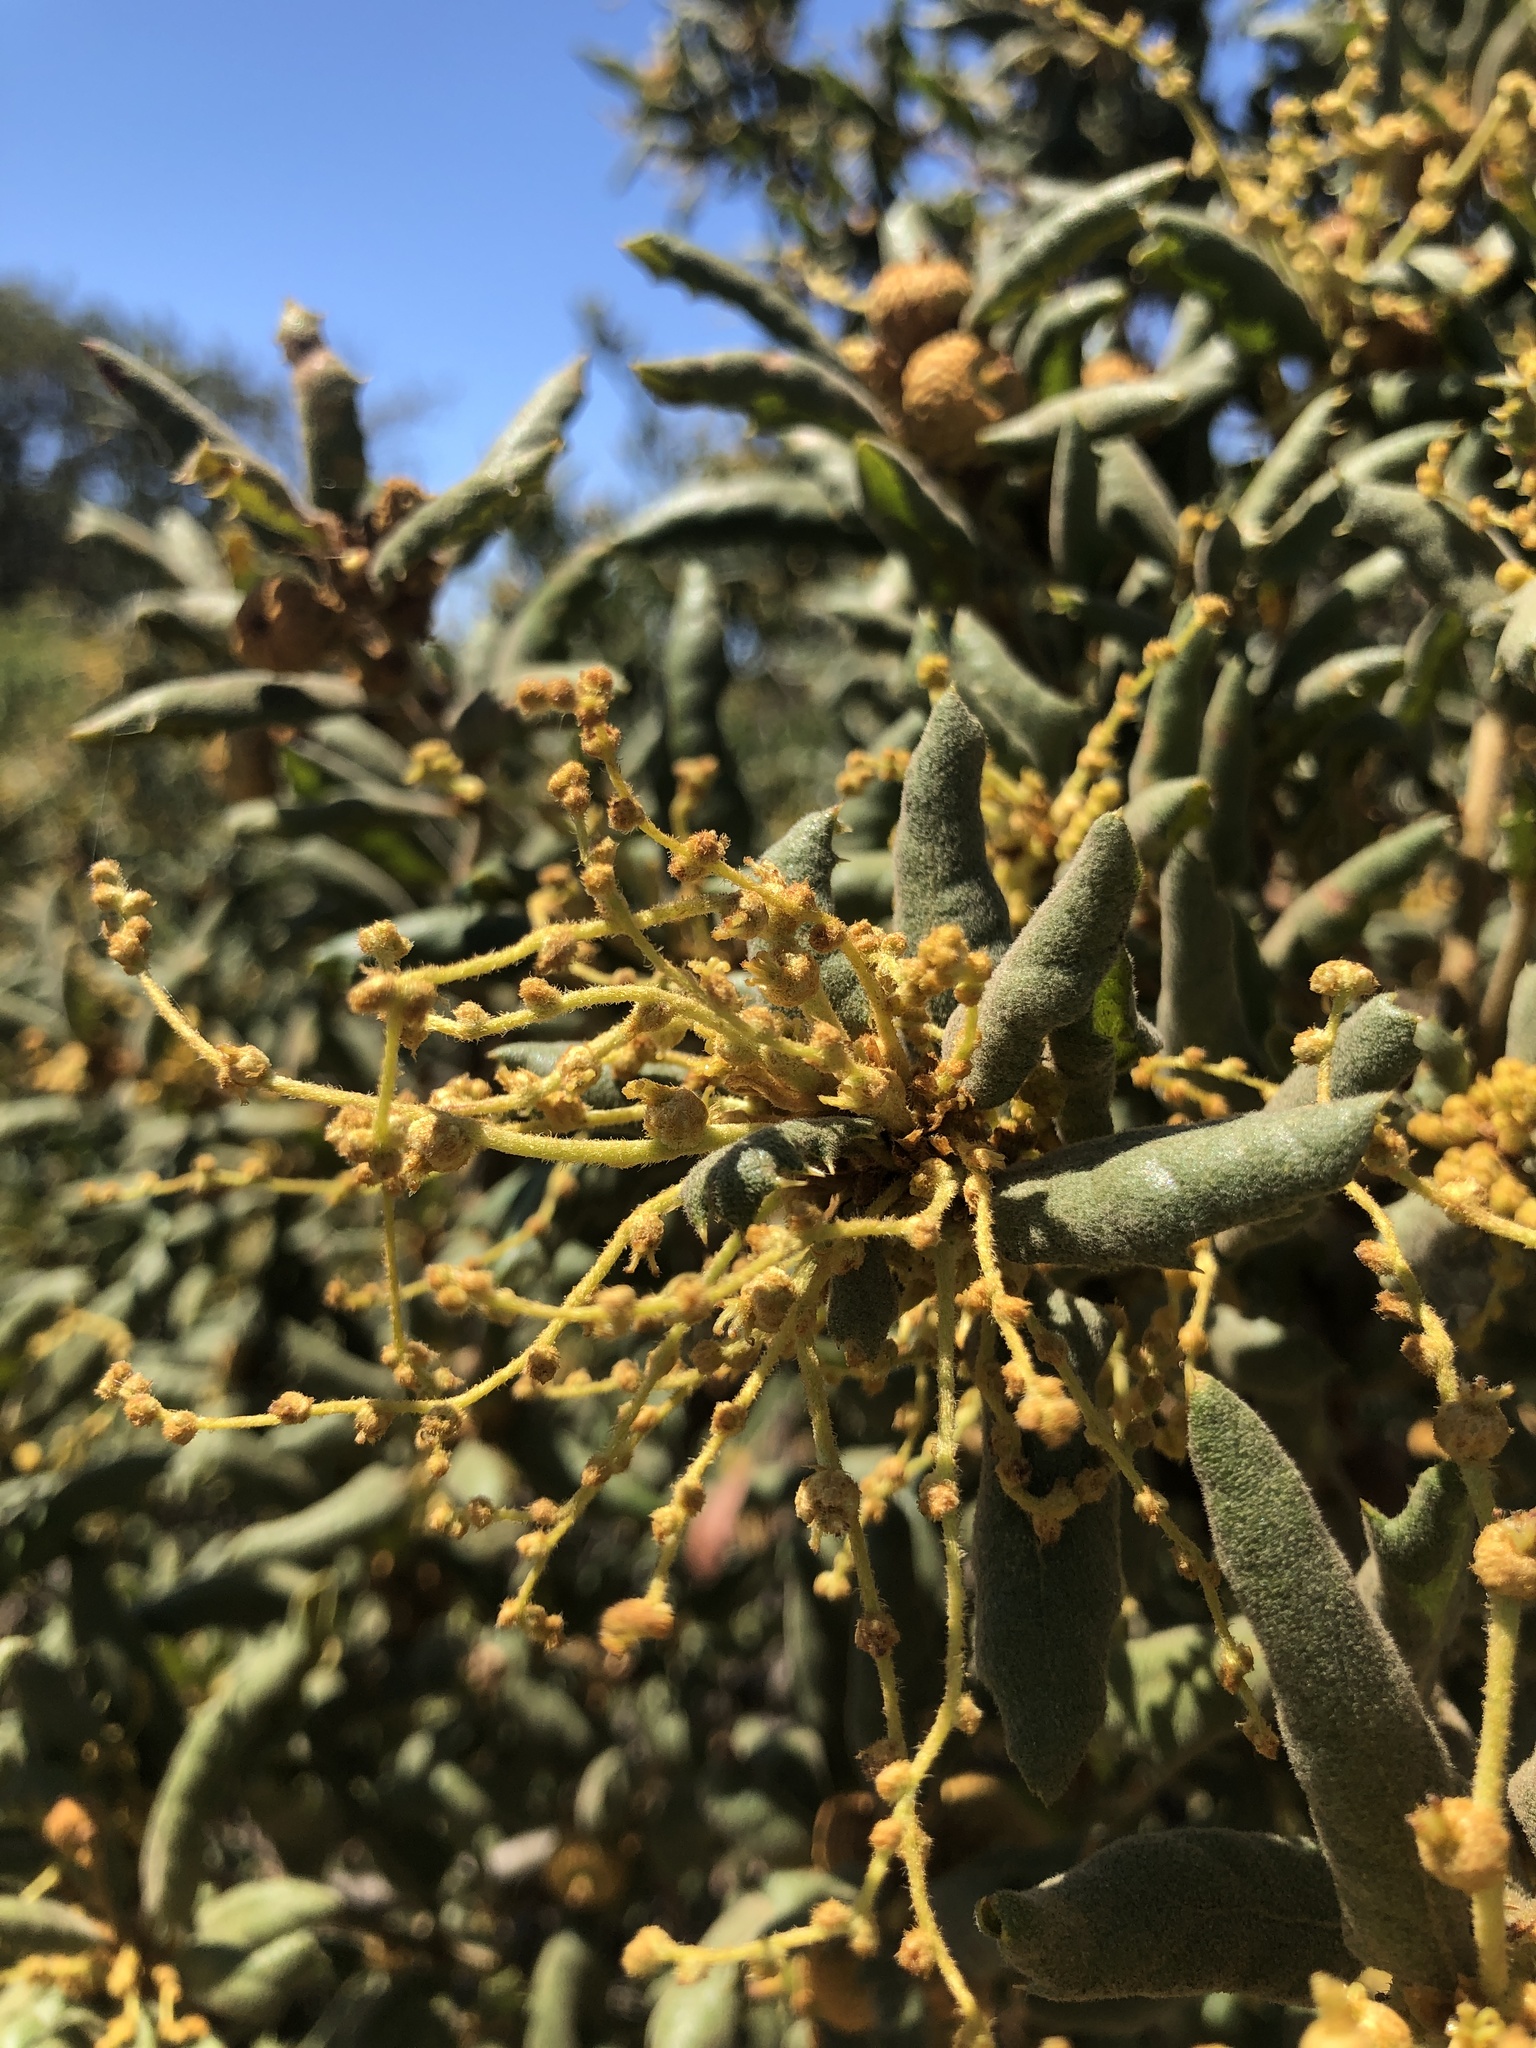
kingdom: Plantae
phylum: Tracheophyta
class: Magnoliopsida
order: Fagales
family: Fagaceae
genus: Quercus
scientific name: Quercus durata
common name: Leather oak
